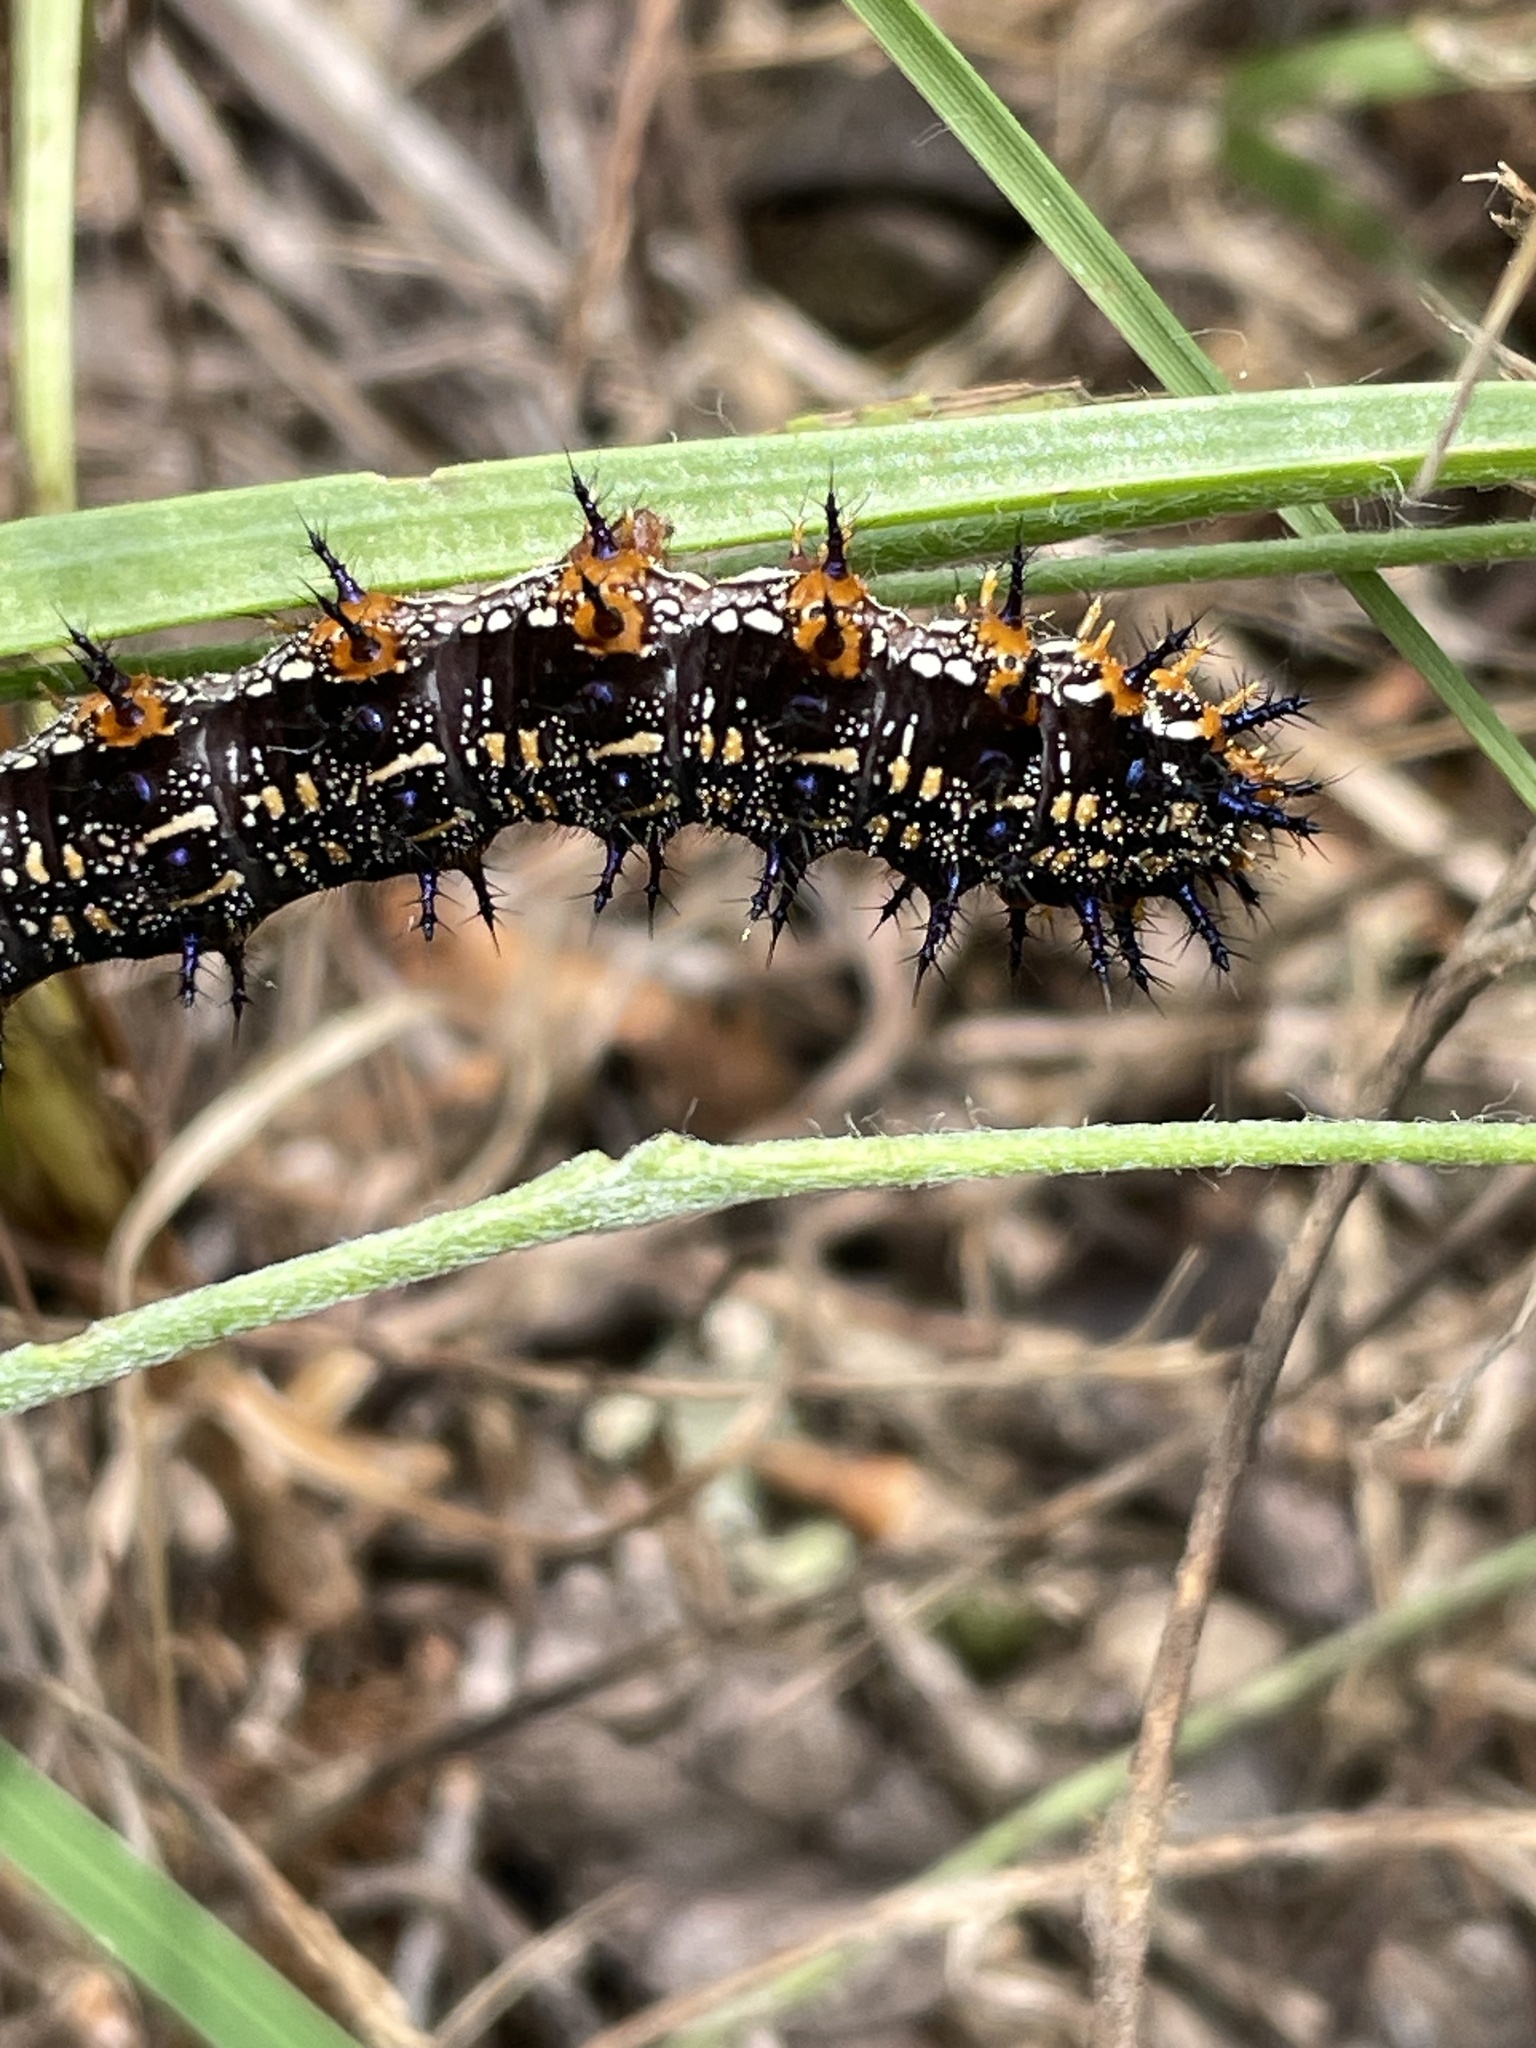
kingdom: Animalia
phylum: Arthropoda
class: Insecta
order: Lepidoptera
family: Nymphalidae
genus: Junonia
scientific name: Junonia coenia
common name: Common buckeye
